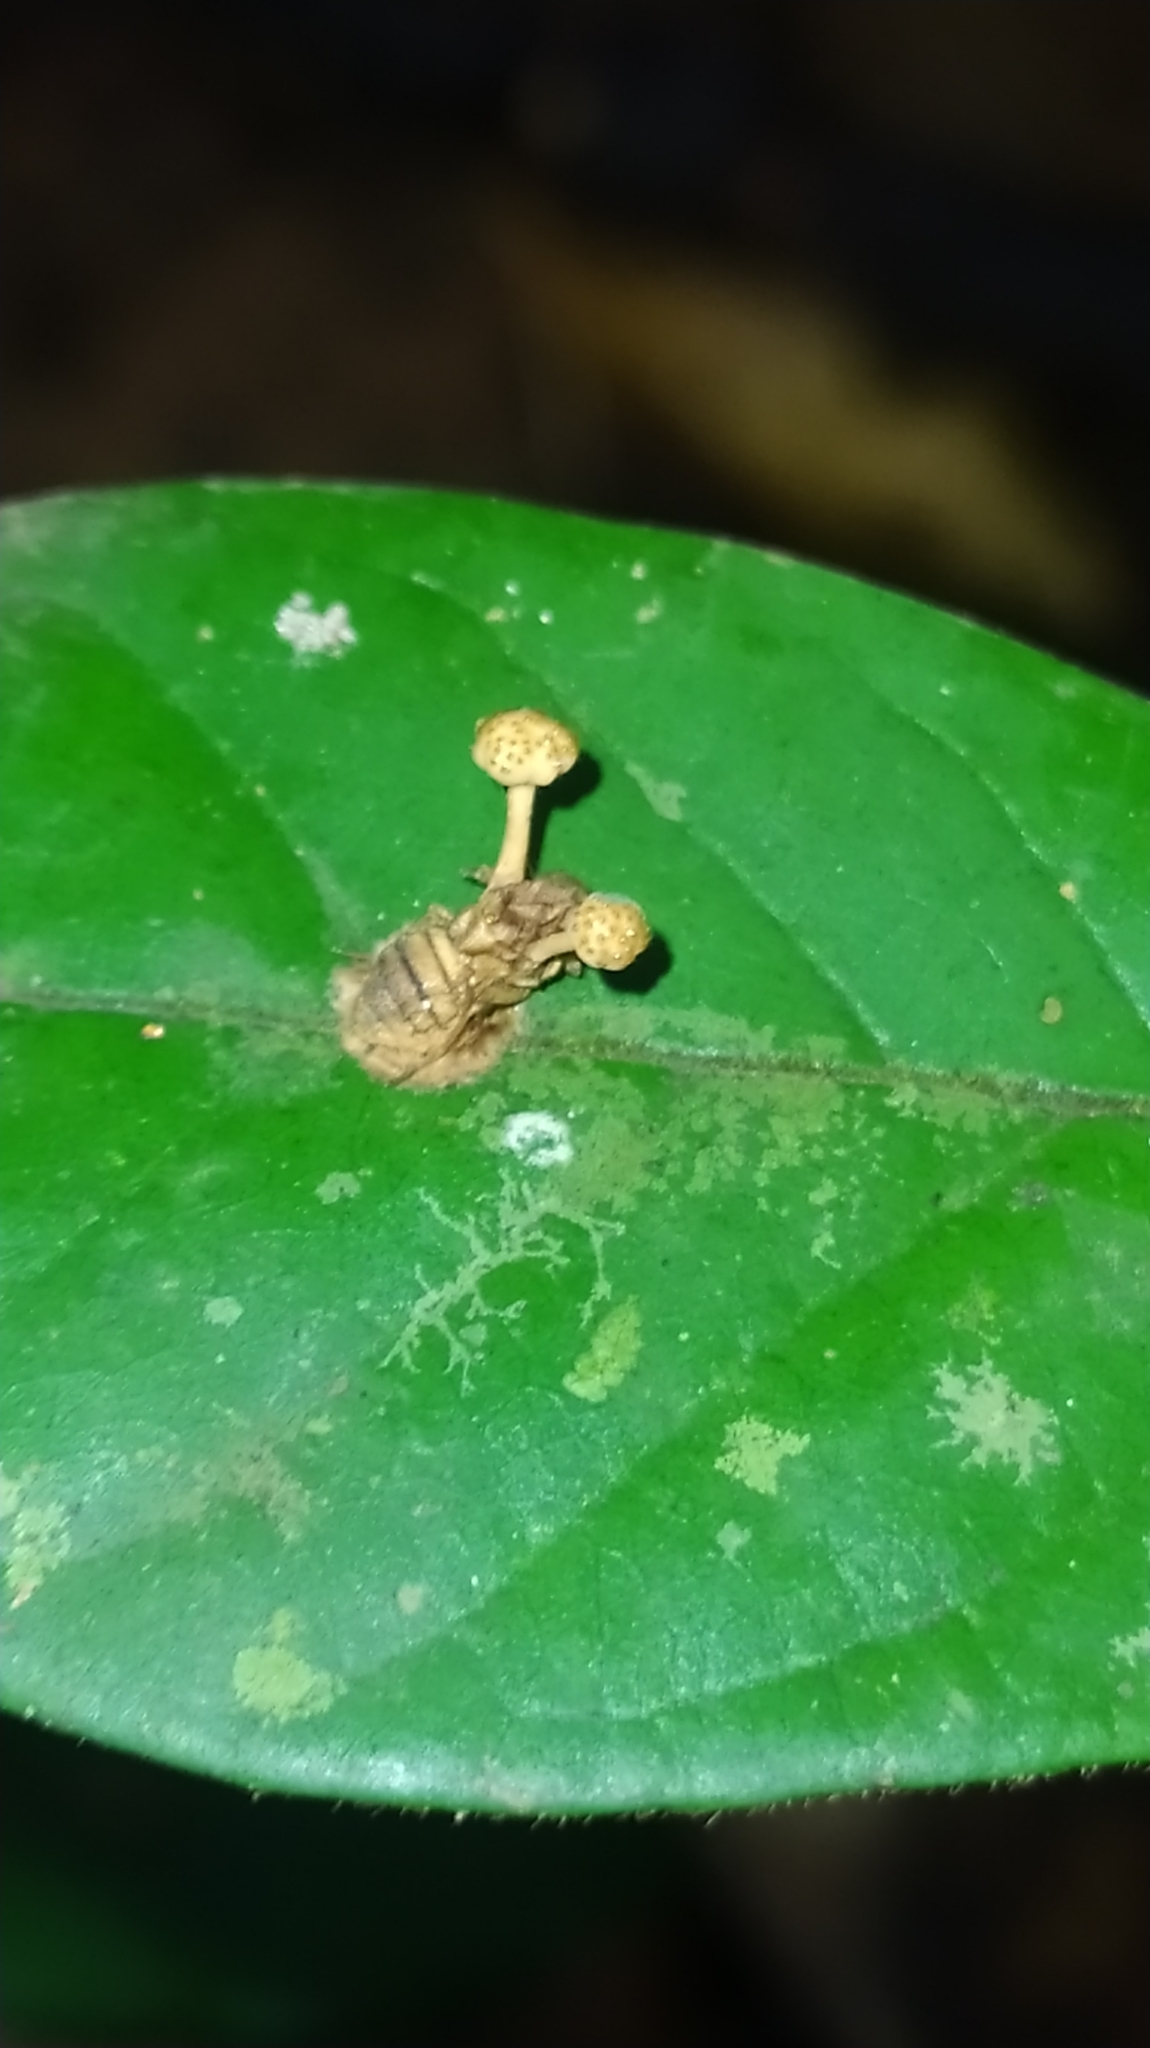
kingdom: Fungi
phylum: Ascomycota
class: Sordariomycetes
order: Hypocreales
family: Ophiocordycipitaceae
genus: Ophiocordyceps
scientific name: Ophiocordyceps dipterigena
